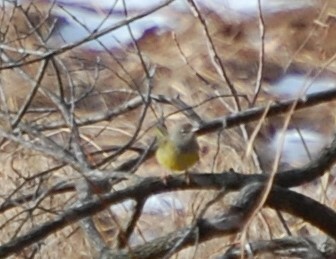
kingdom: Animalia
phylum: Chordata
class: Aves
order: Passeriformes
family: Parulidae
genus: Geothlypis
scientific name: Geothlypis tolmiei
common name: Macgillivray's warbler
